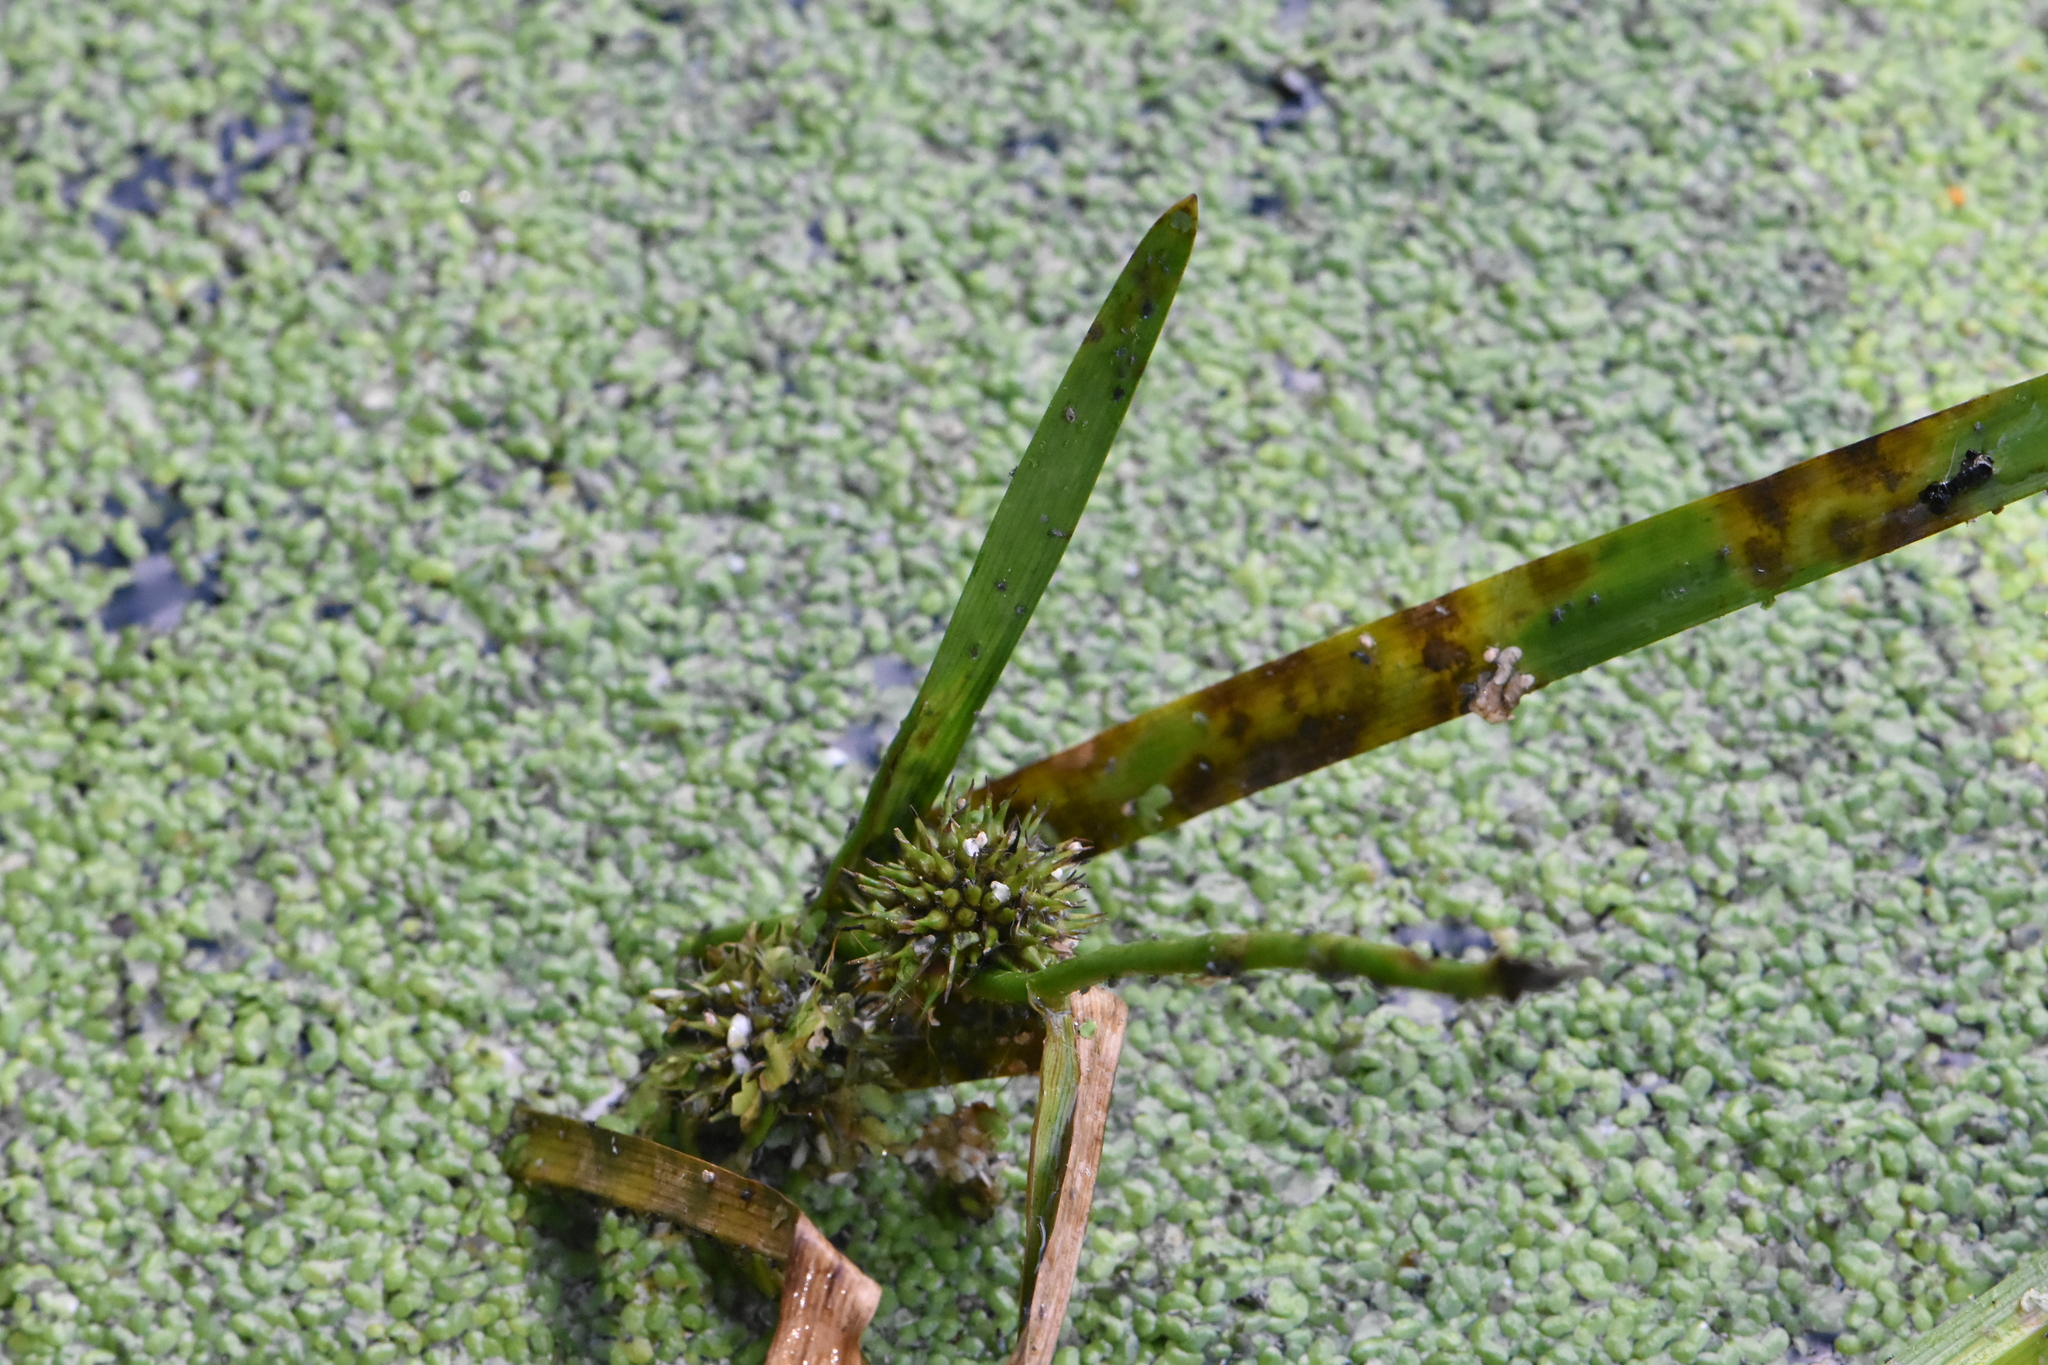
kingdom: Plantae
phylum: Tracheophyta
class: Liliopsida
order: Poales
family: Typhaceae
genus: Sparganium
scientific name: Sparganium emersum
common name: Unbranched bur-reed
